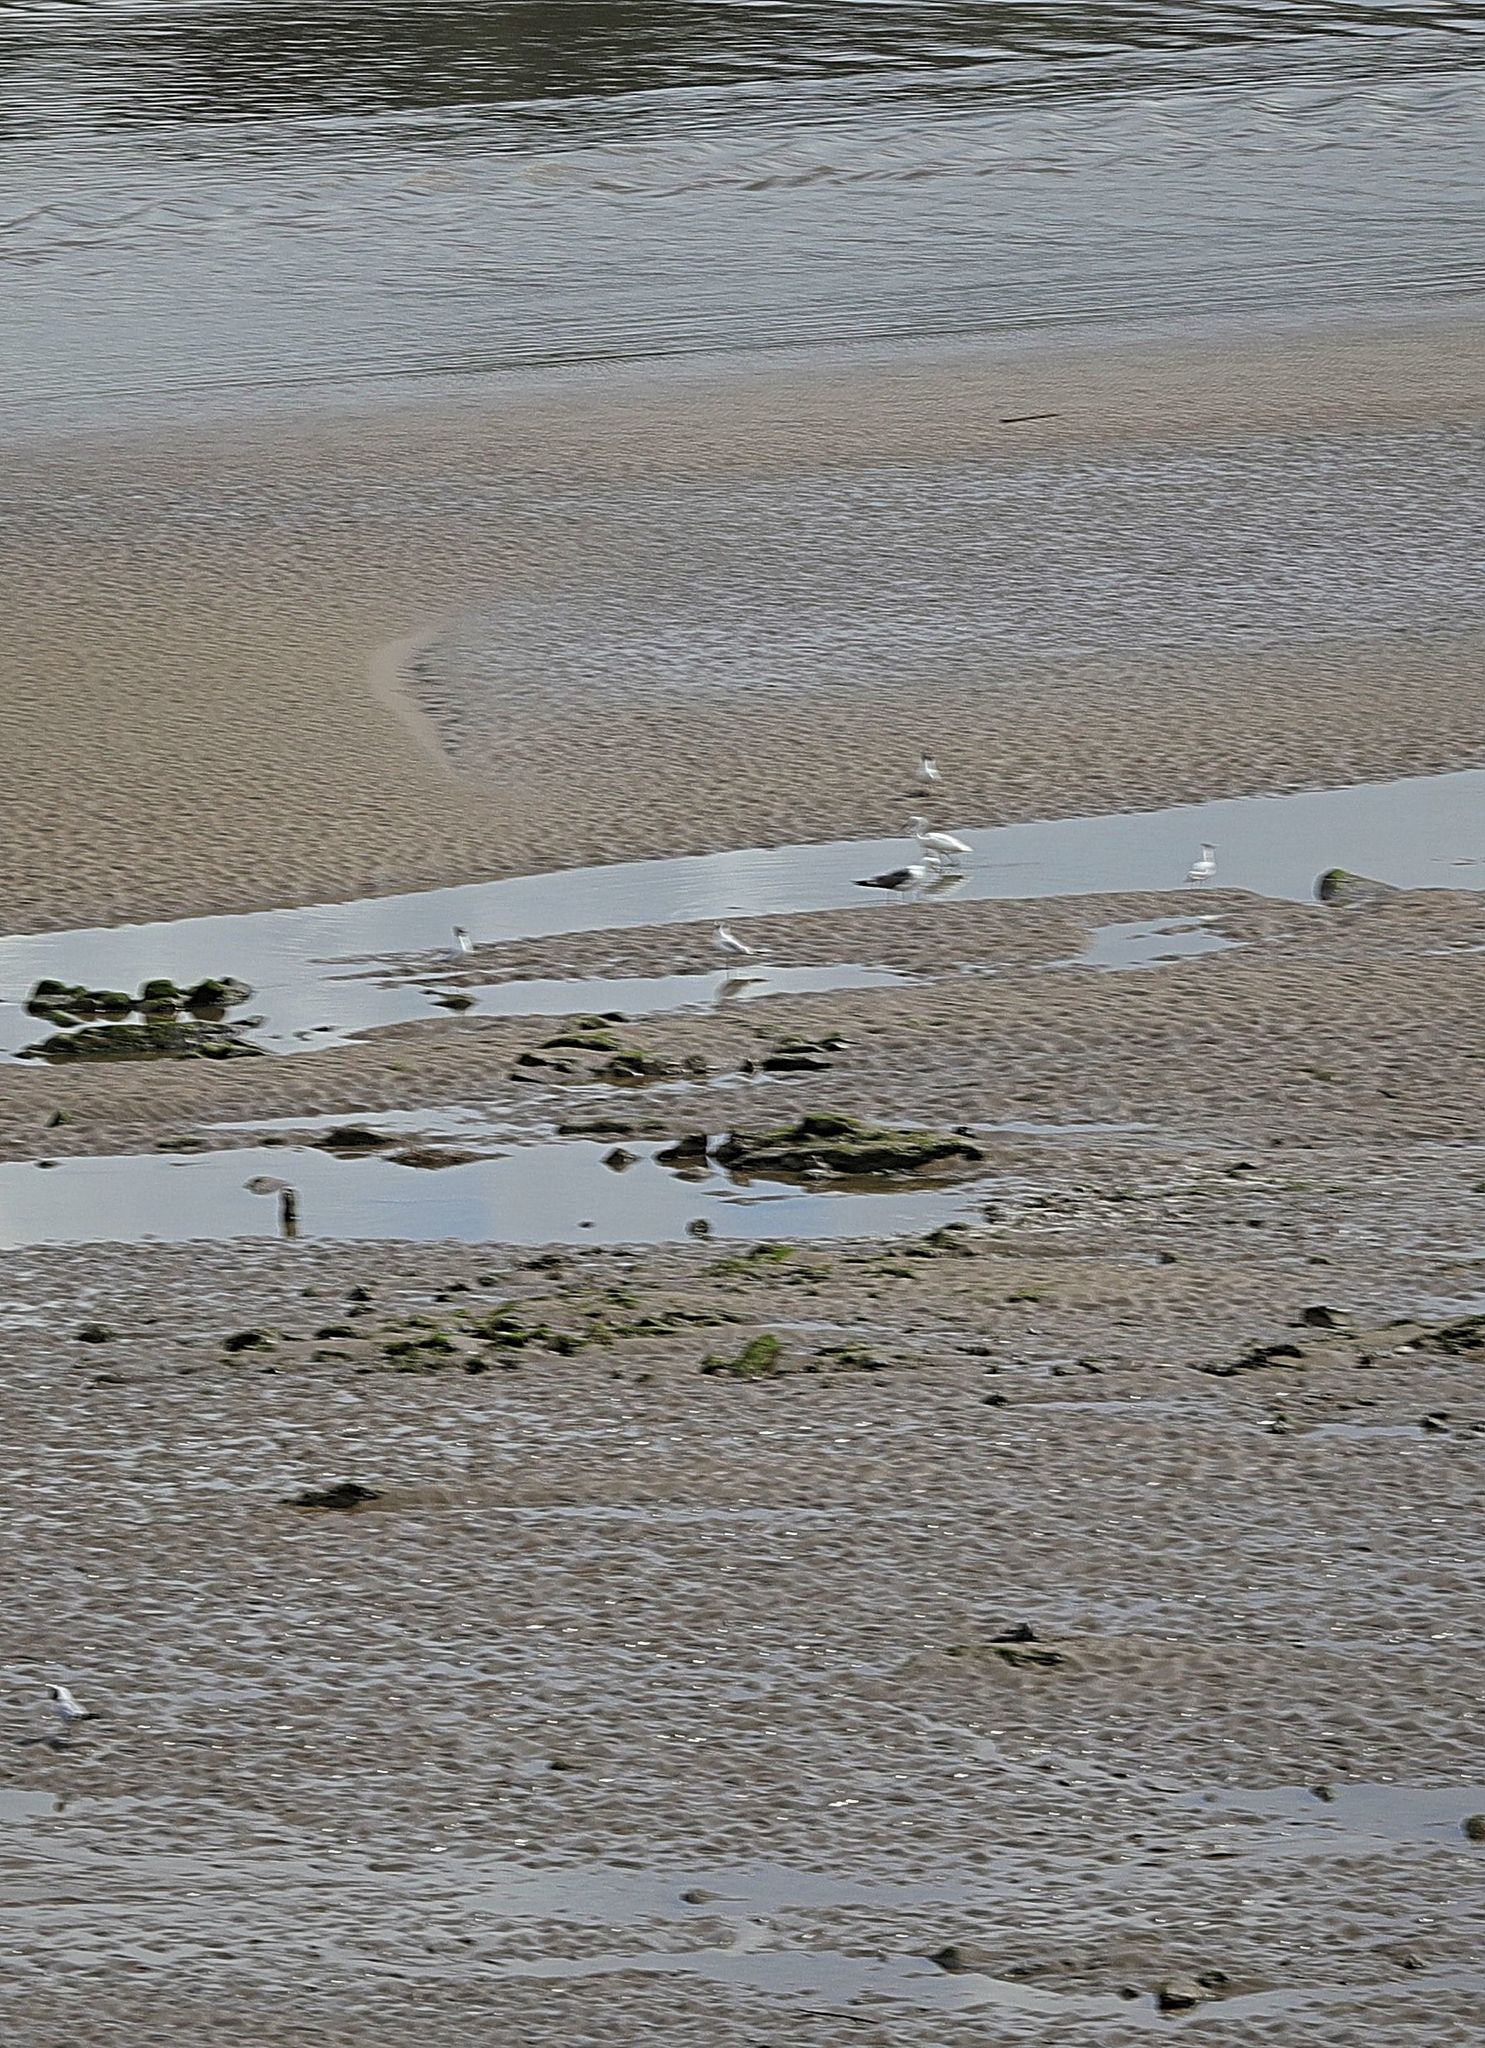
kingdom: Animalia
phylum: Chordata
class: Aves
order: Pelecaniformes
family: Ardeidae
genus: Egretta
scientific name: Egretta garzetta
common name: Little egret
